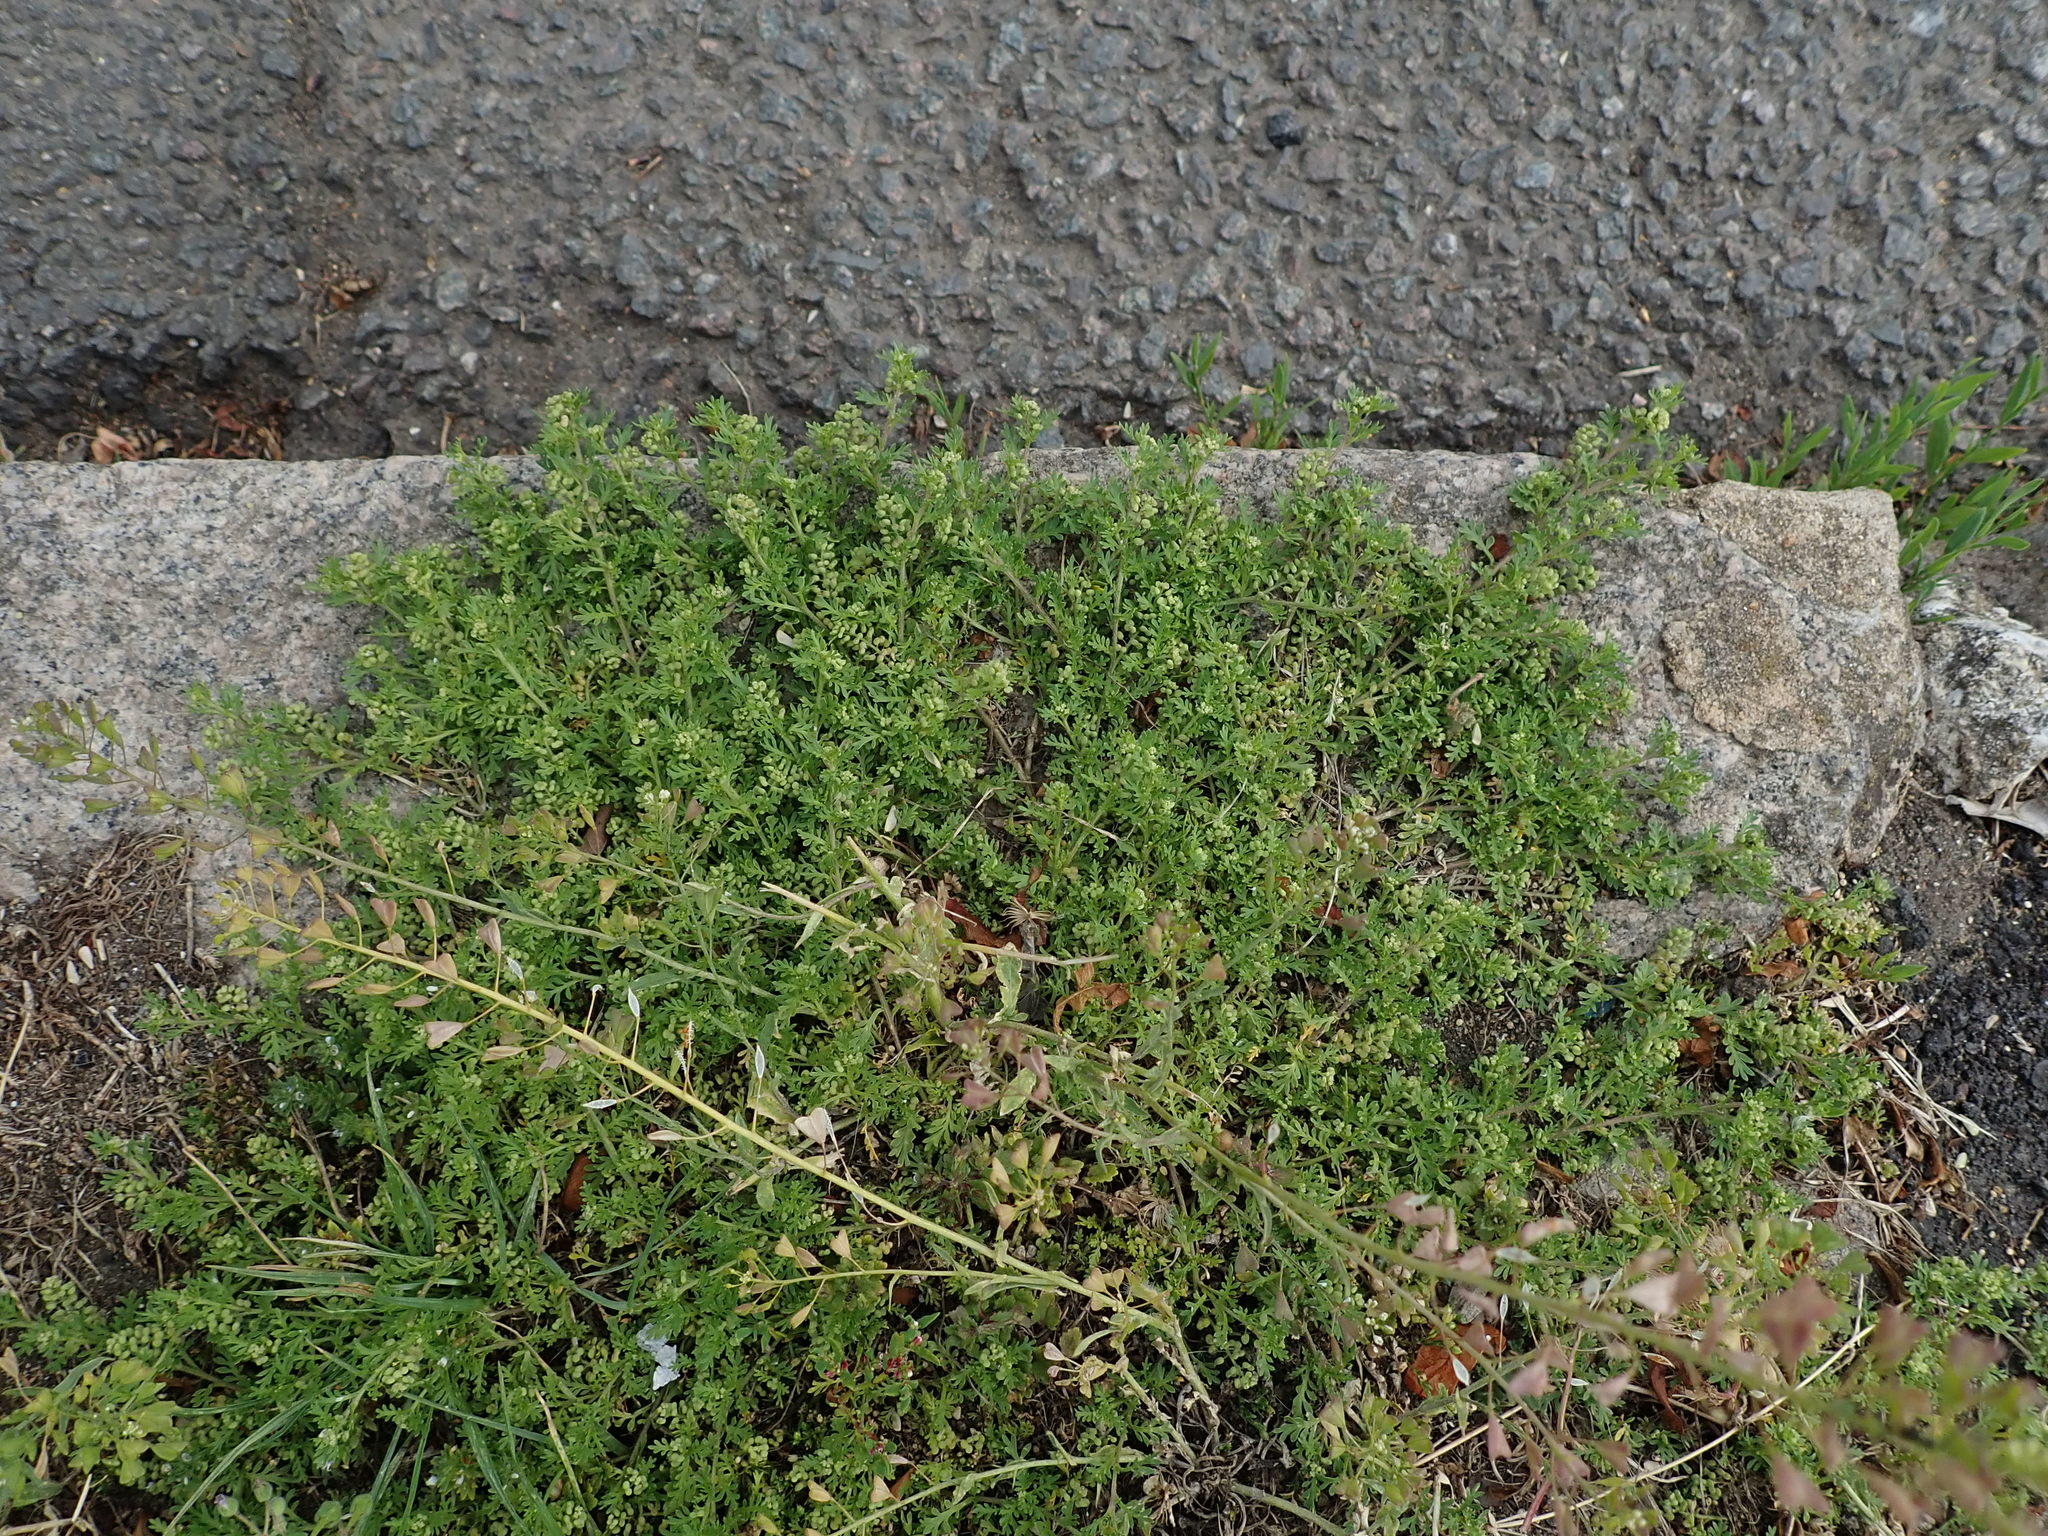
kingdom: Plantae
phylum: Tracheophyta
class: Magnoliopsida
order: Brassicales
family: Brassicaceae
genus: Lepidium
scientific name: Lepidium didymum
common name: Lesser swinecress
